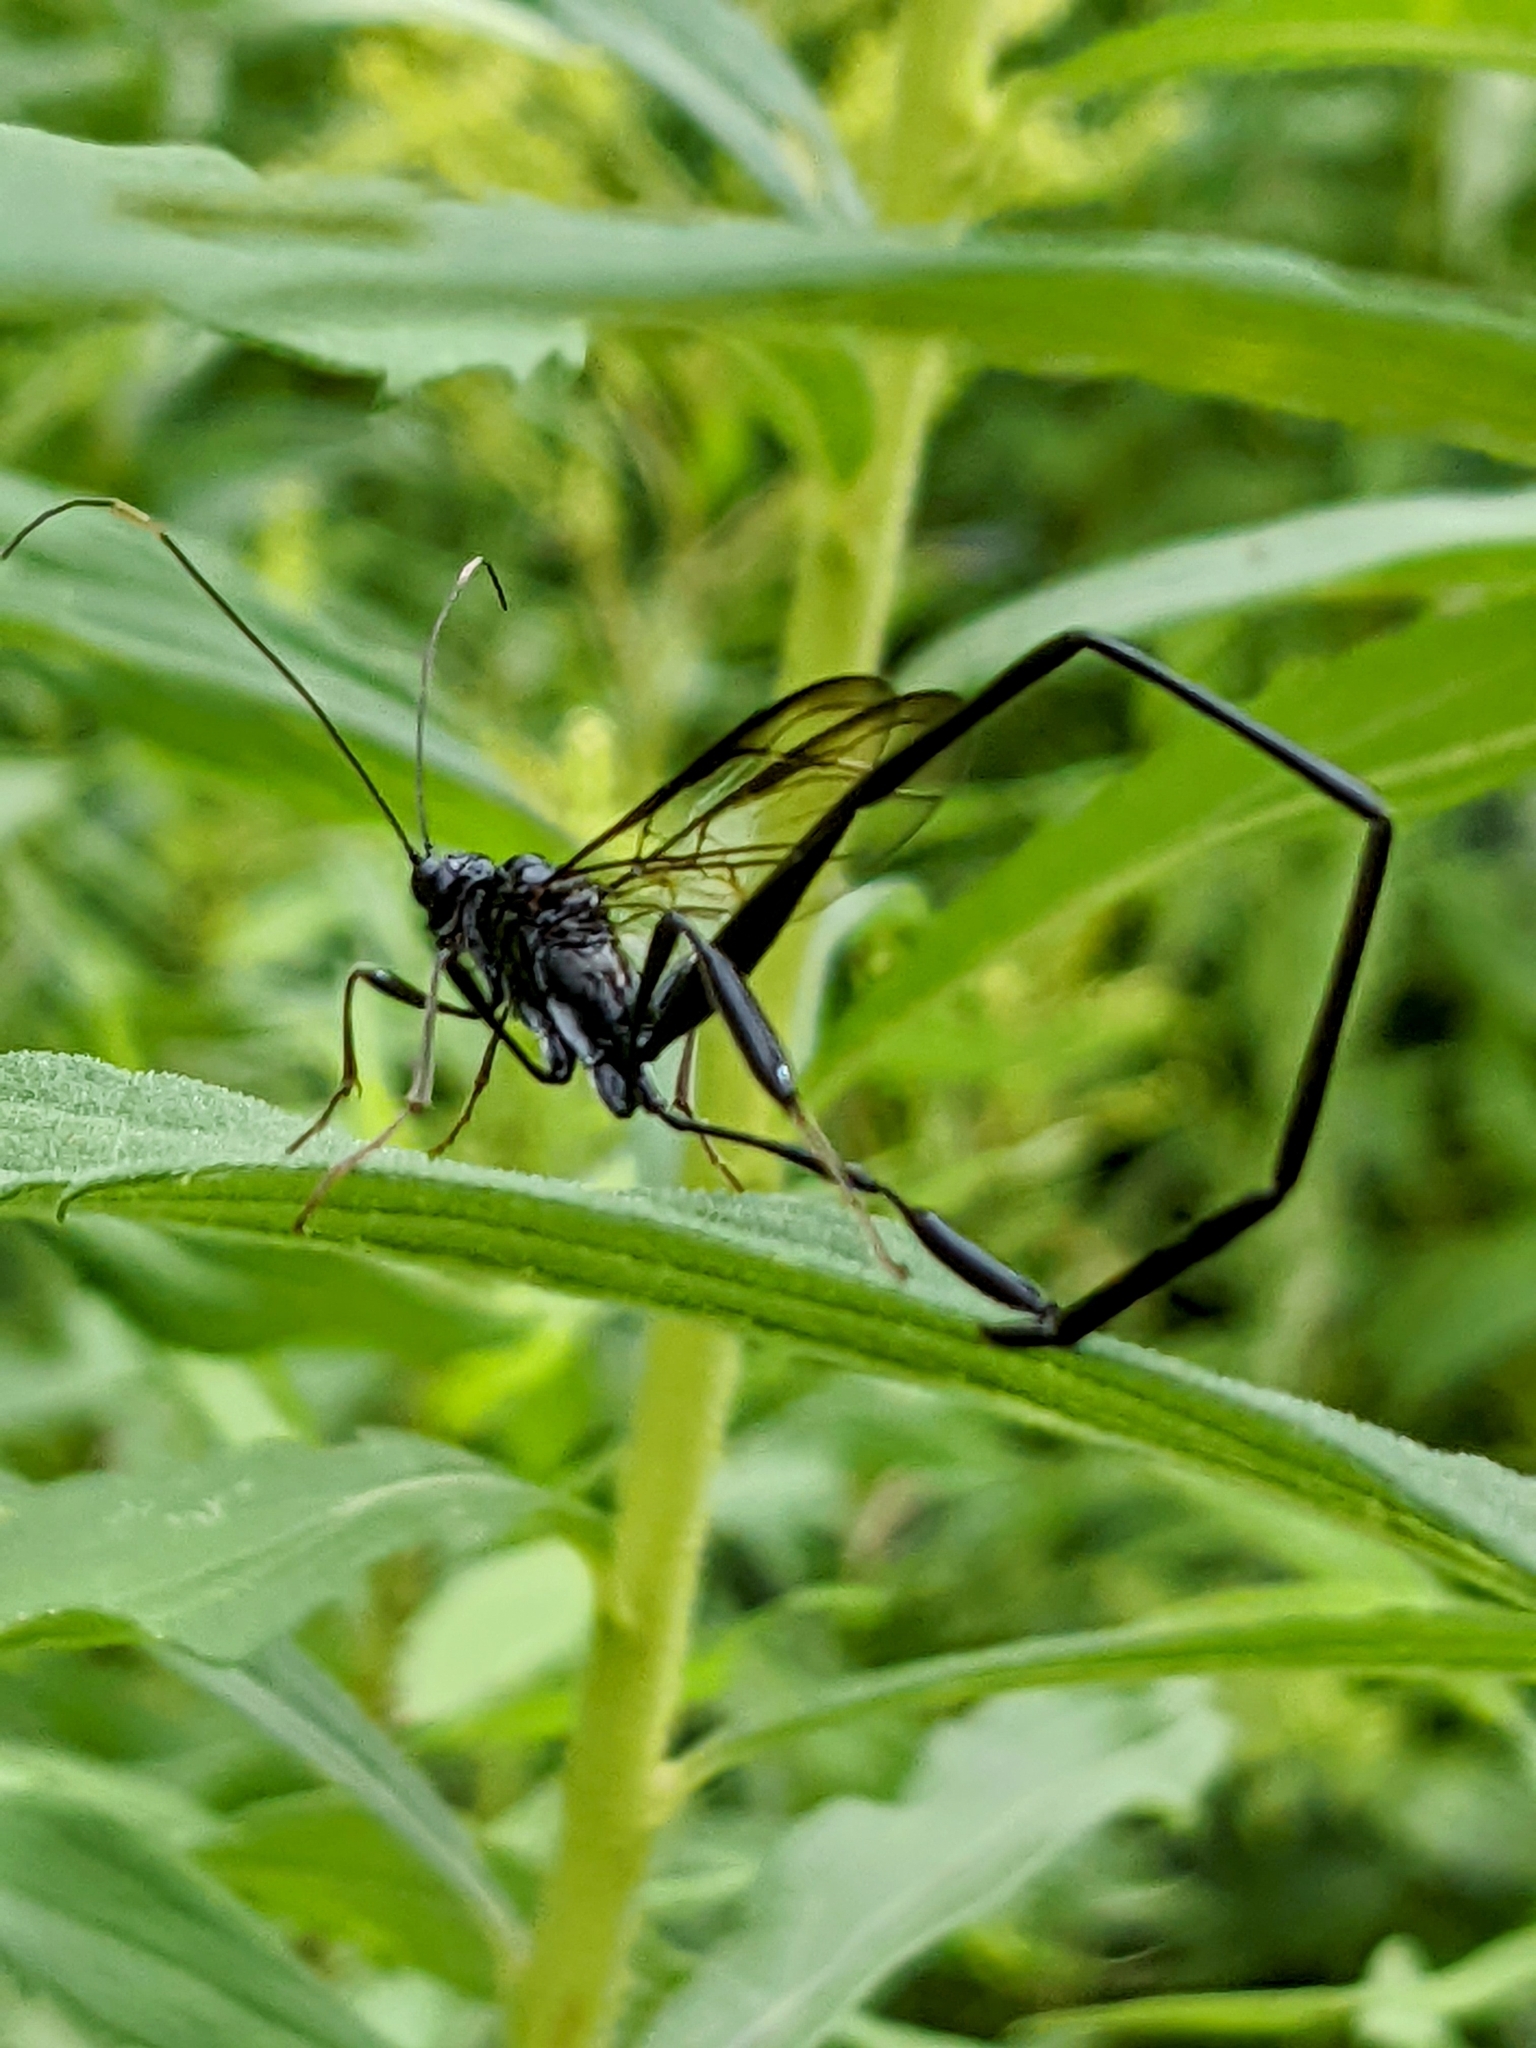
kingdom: Animalia
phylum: Arthropoda
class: Insecta
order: Hymenoptera
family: Pelecinidae
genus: Pelecinus
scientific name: Pelecinus polyturator
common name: American pelecinid wasp
